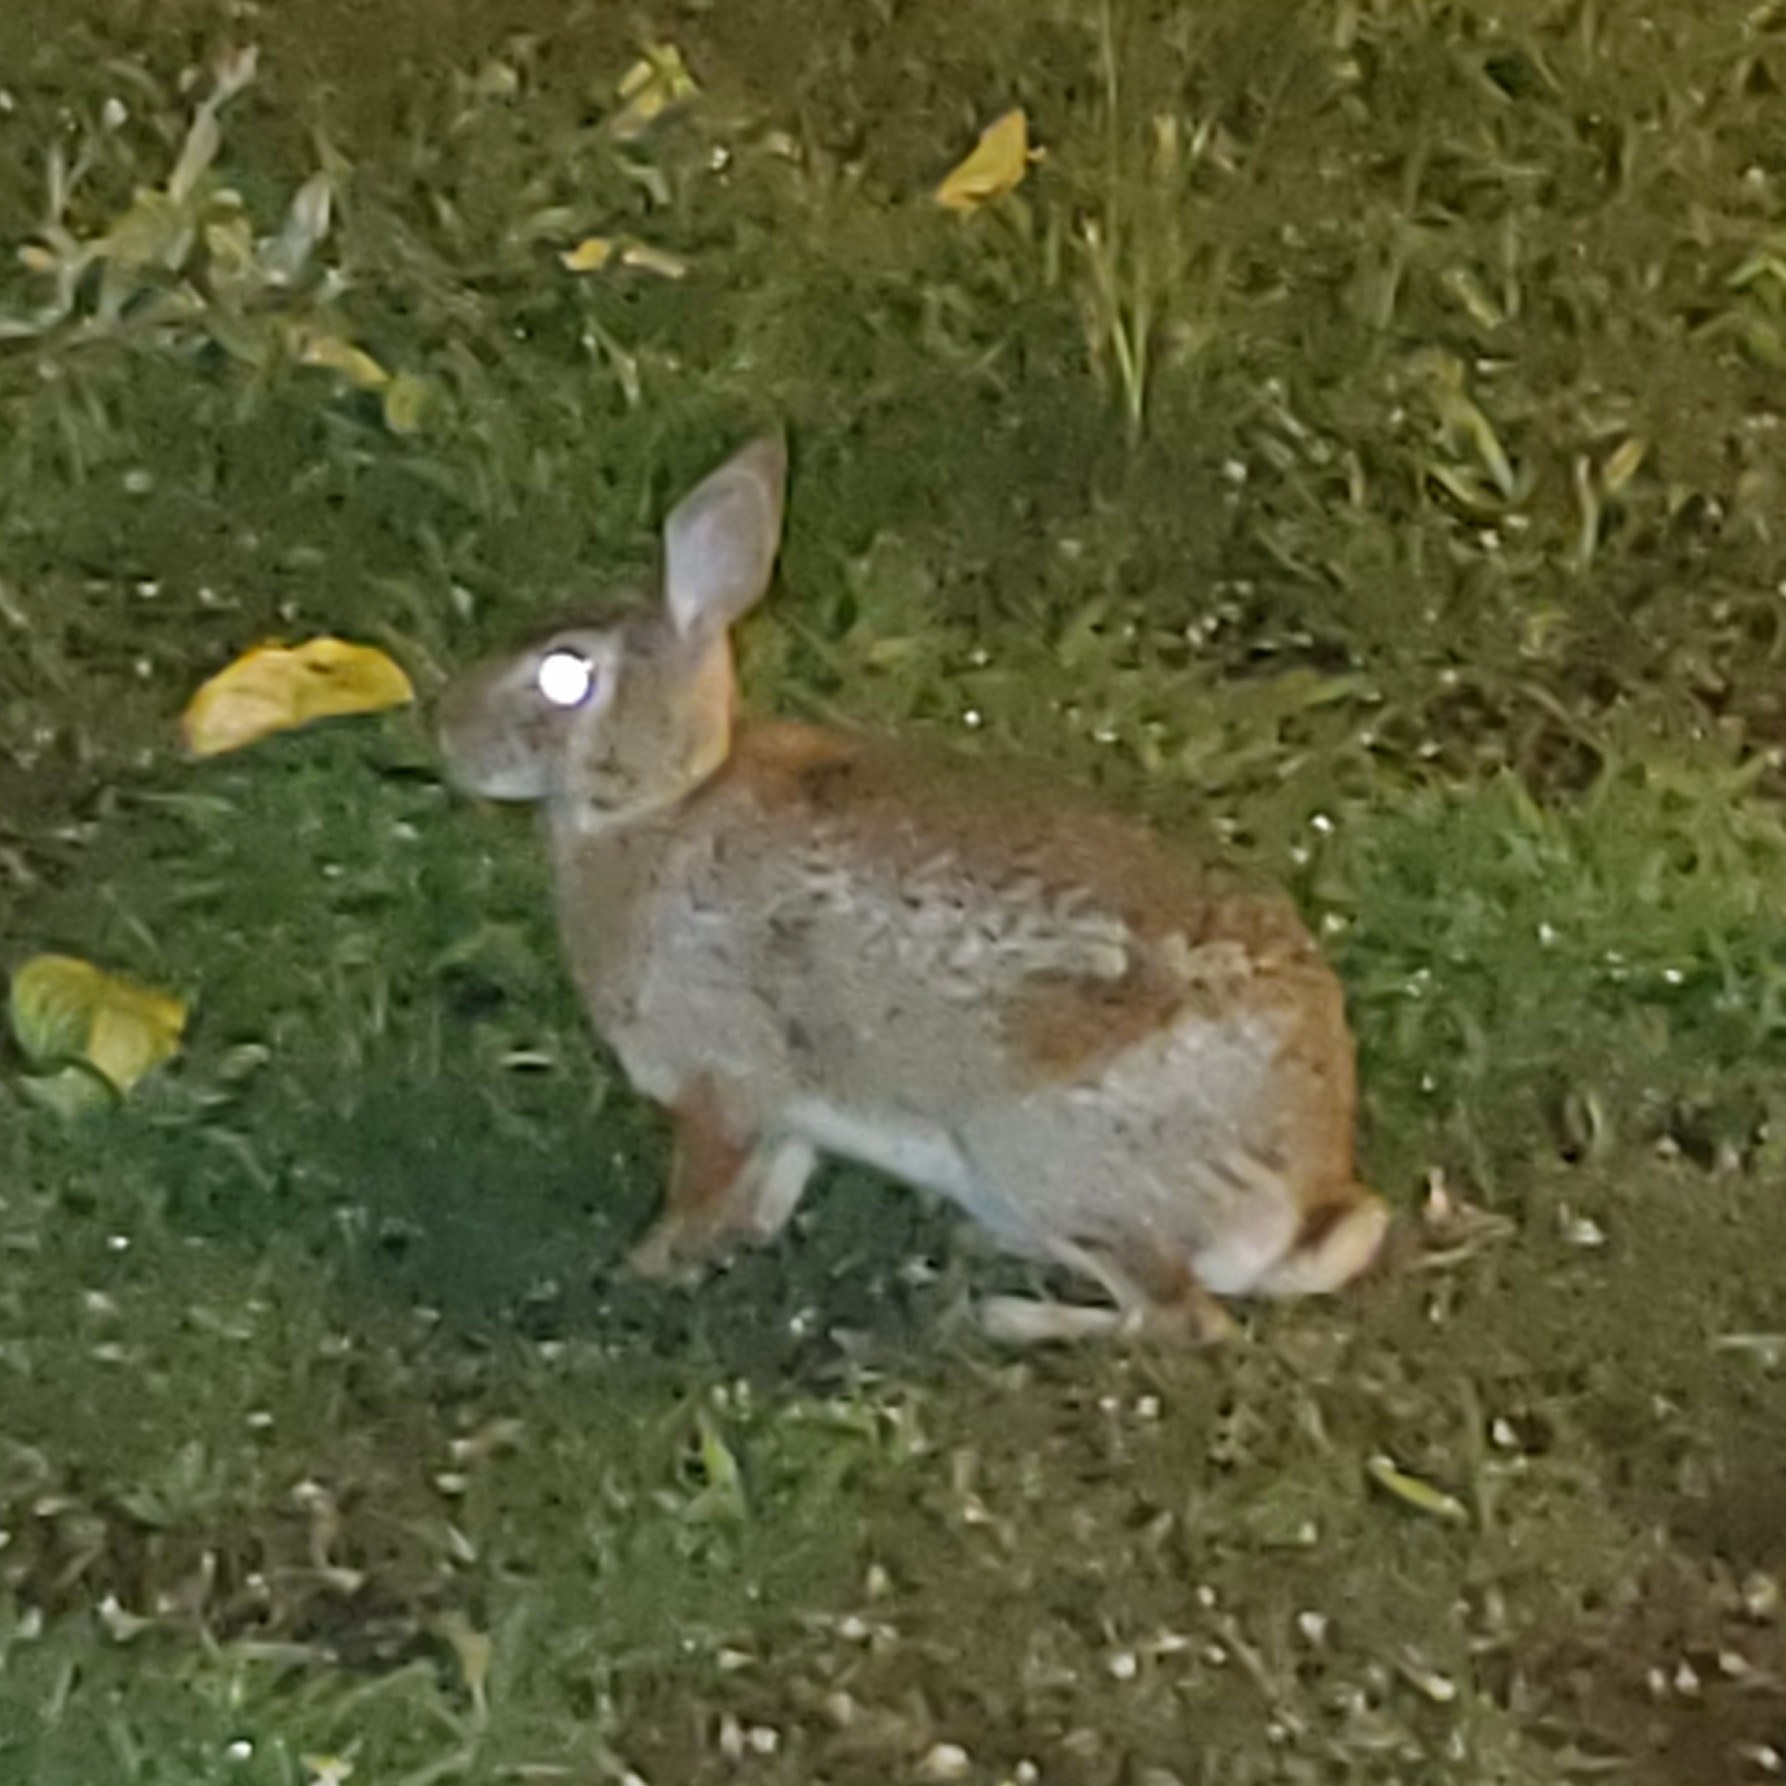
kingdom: Animalia
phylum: Chordata
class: Mammalia
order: Lagomorpha
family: Leporidae
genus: Sylvilagus
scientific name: Sylvilagus floridanus
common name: Eastern cottontail
